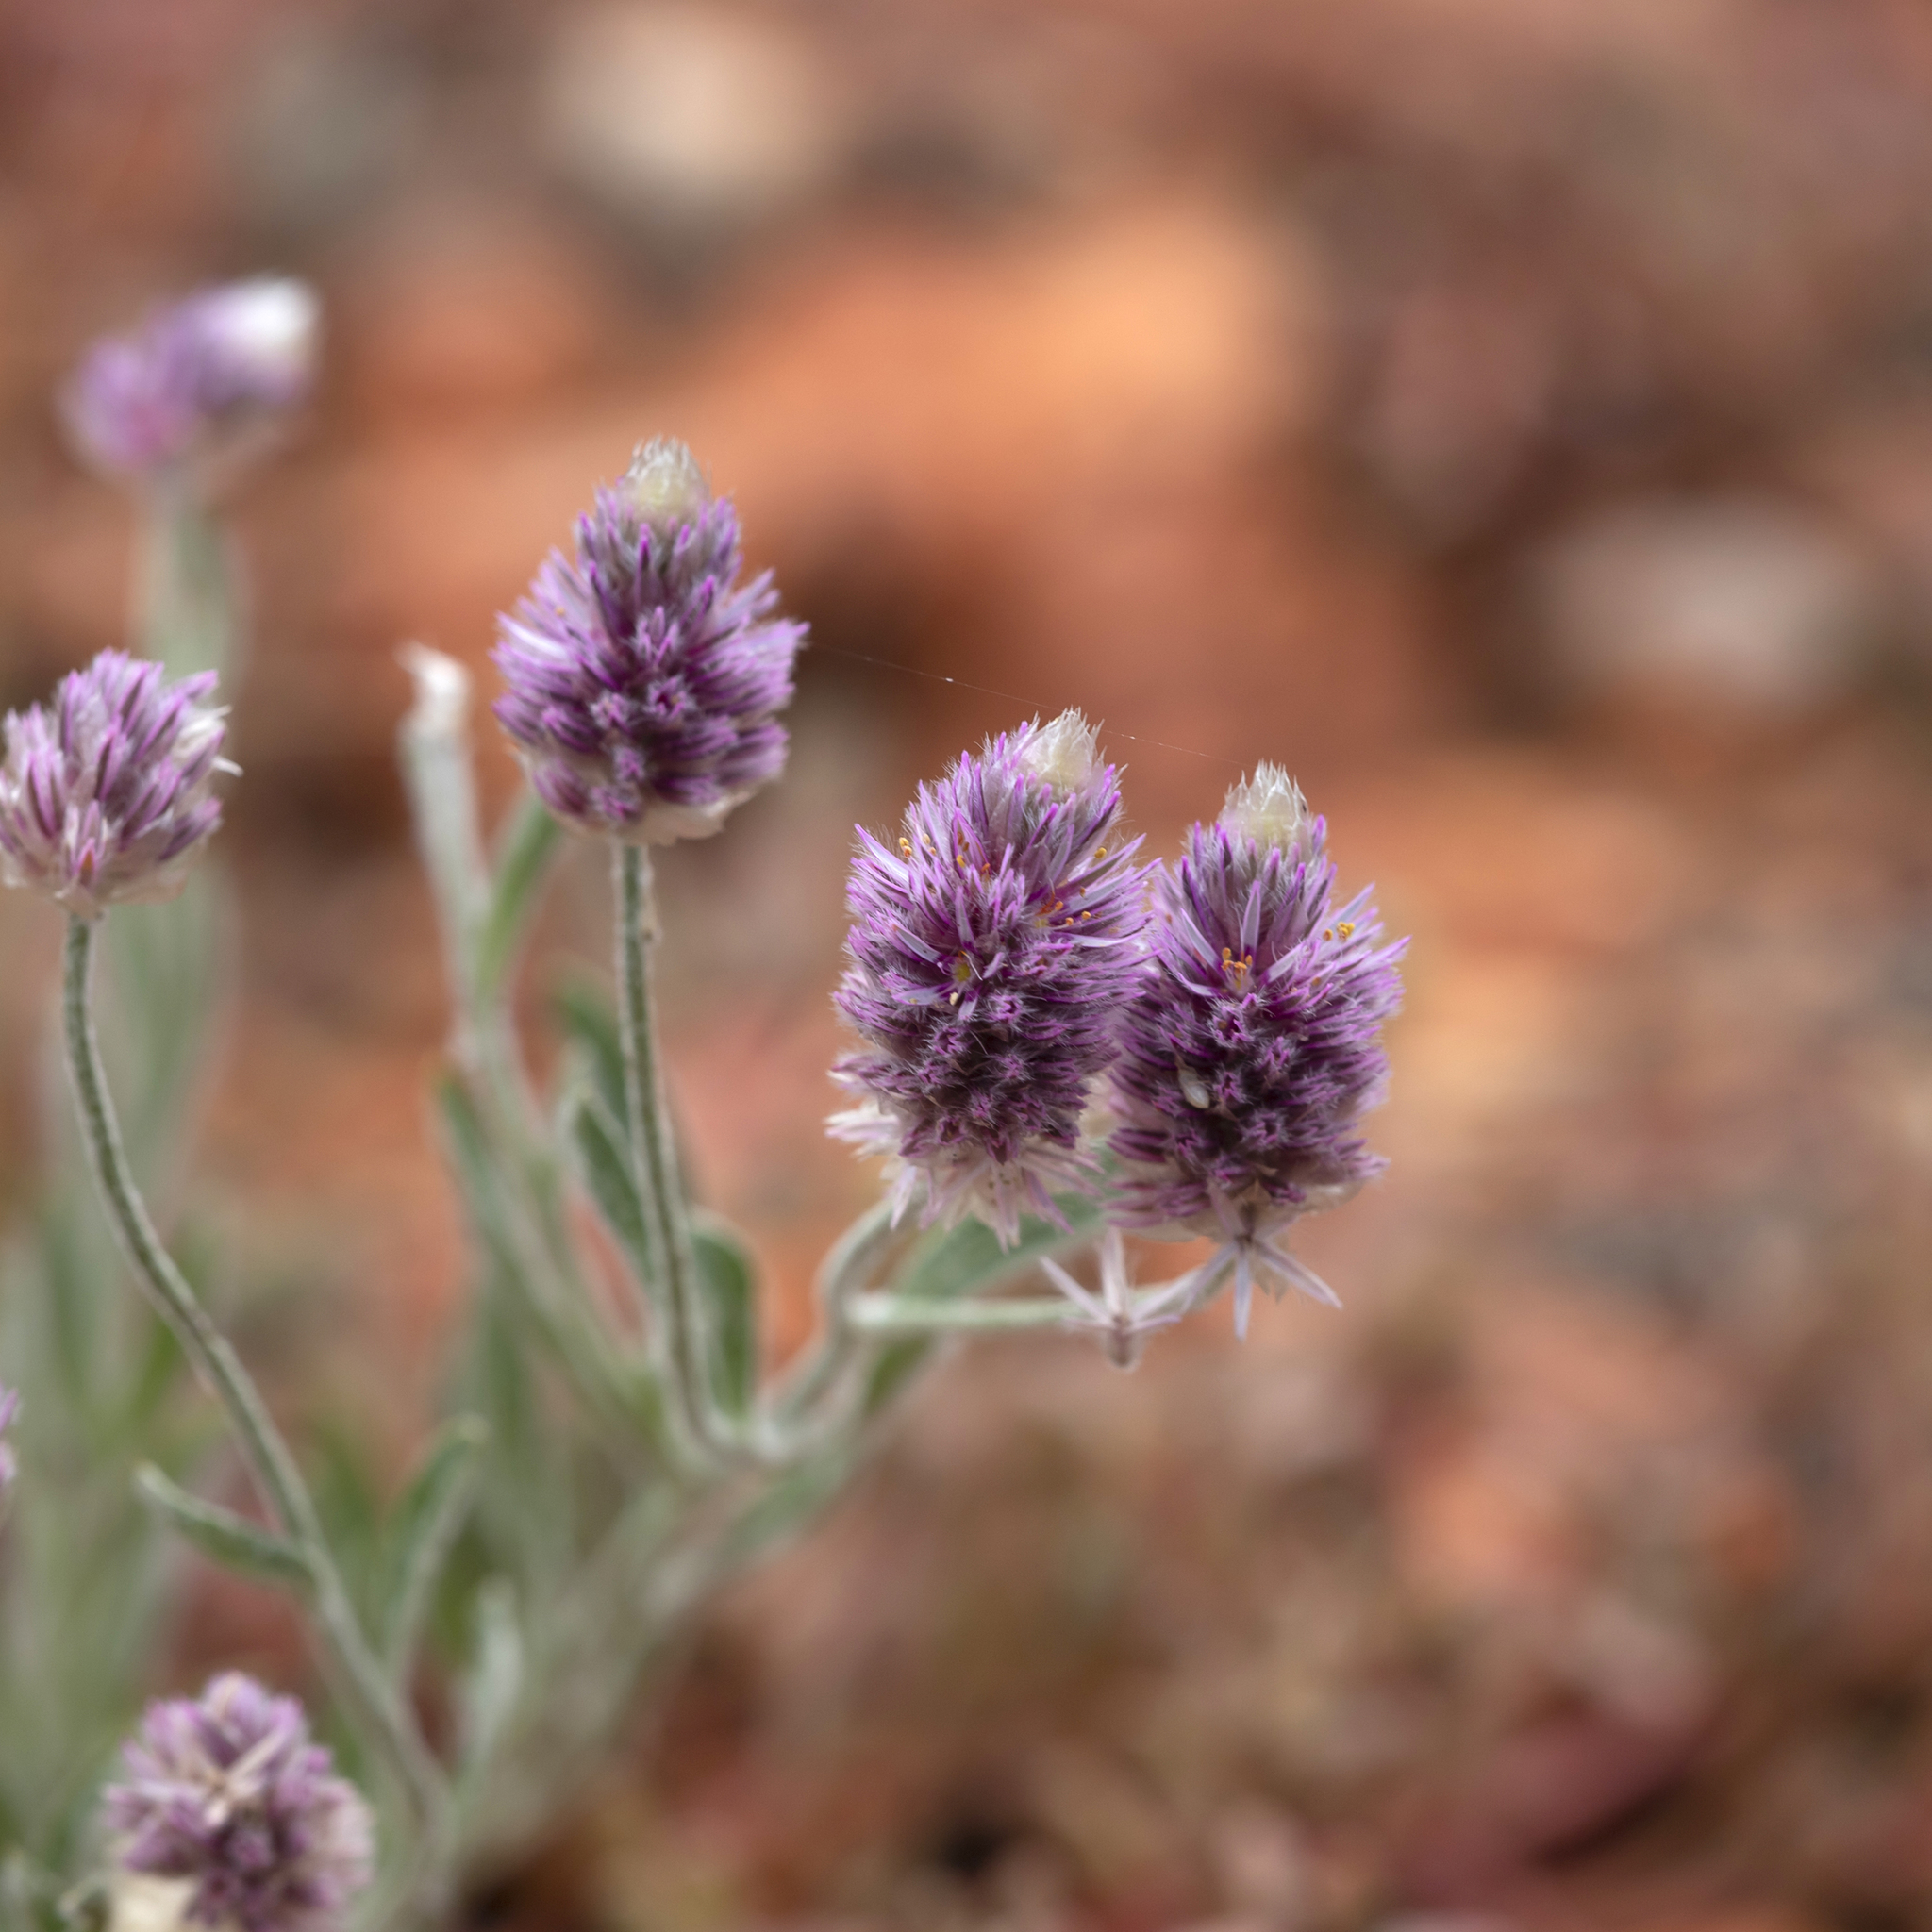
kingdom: Plantae
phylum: Tracheophyta
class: Magnoliopsida
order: Caryophyllales
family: Amaranthaceae
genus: Ptilotus
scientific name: Ptilotus helipteroides
